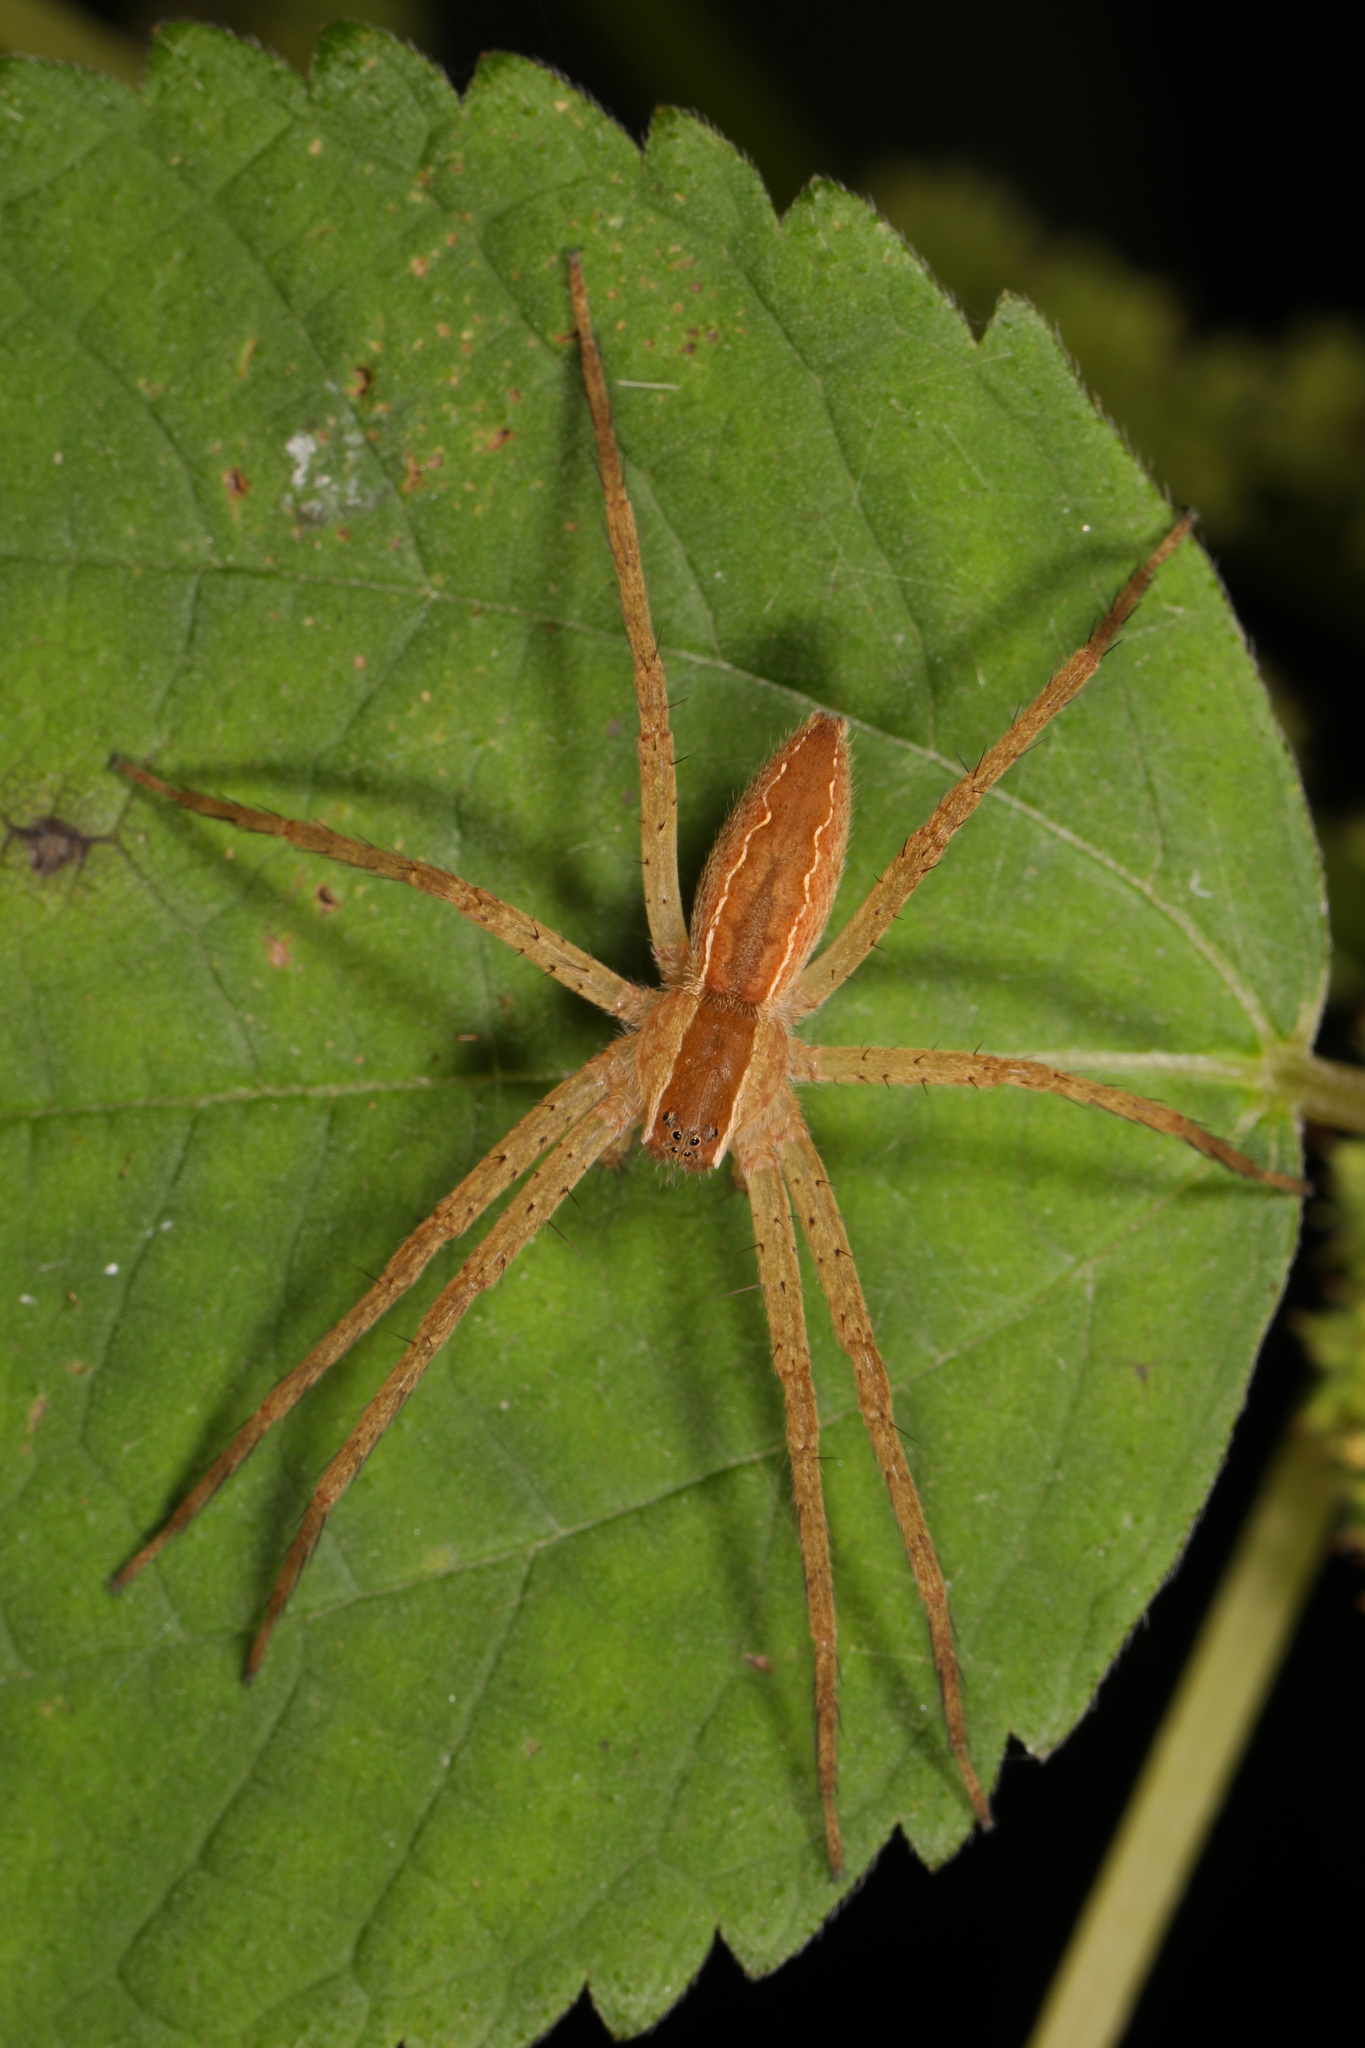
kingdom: Animalia
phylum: Arthropoda
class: Arachnida
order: Araneae
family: Pisauridae
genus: Pisaurina
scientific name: Pisaurina mira
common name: American nursery web spider
